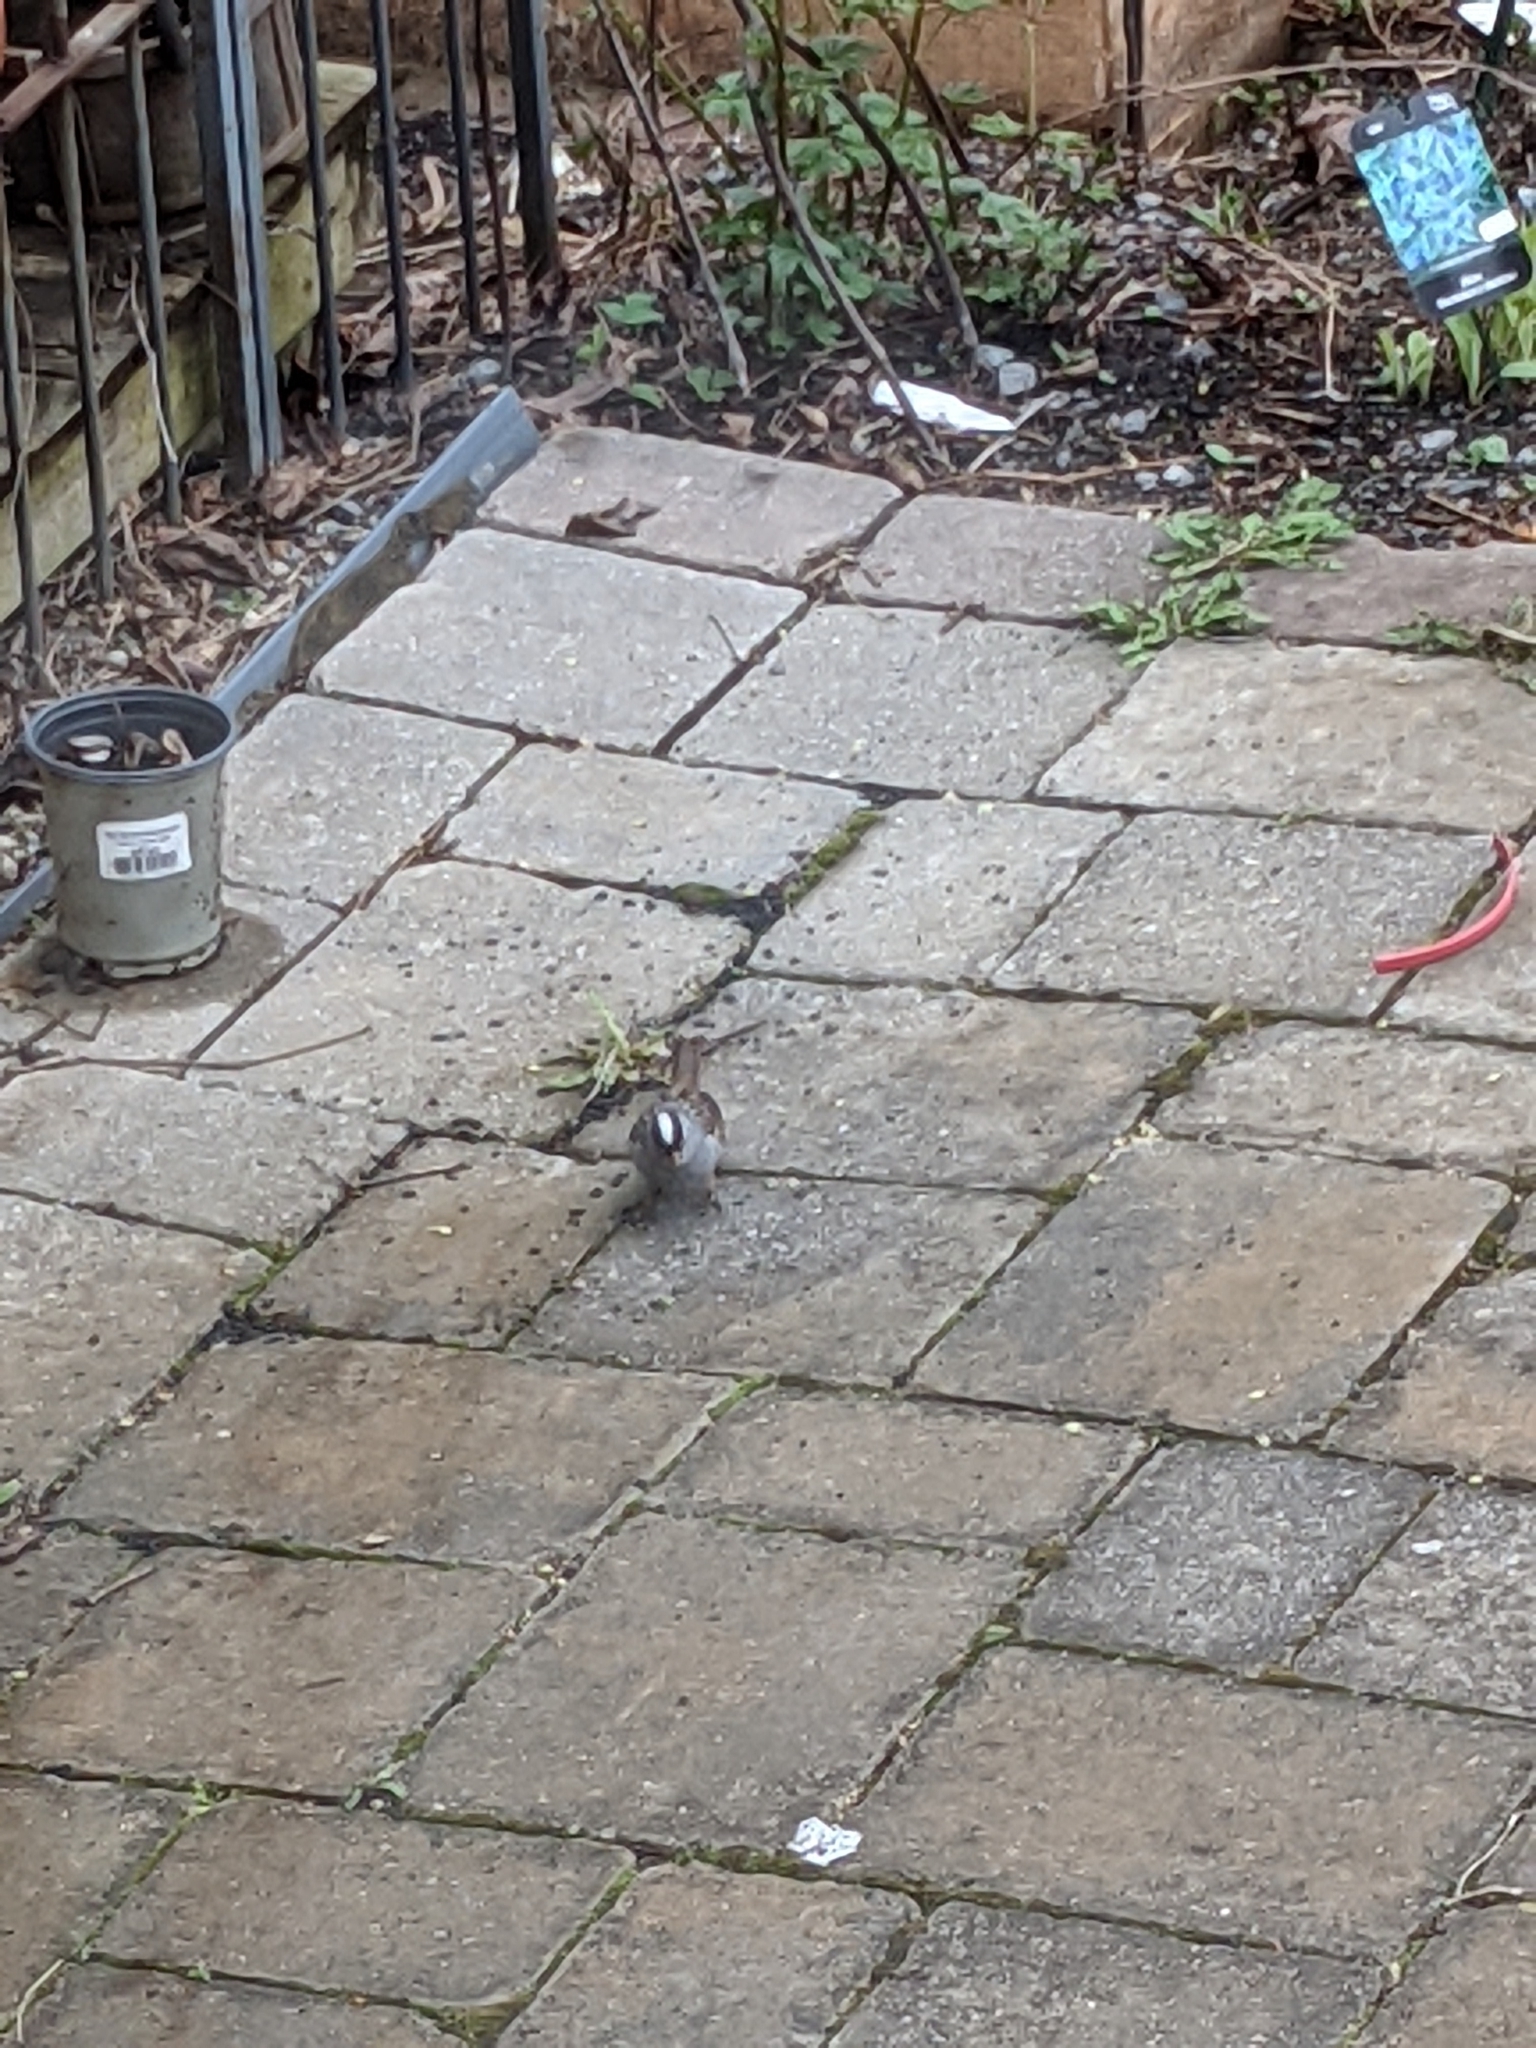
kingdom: Animalia
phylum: Chordata
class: Aves
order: Passeriformes
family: Passerellidae
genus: Zonotrichia
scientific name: Zonotrichia leucophrys
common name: White-crowned sparrow
